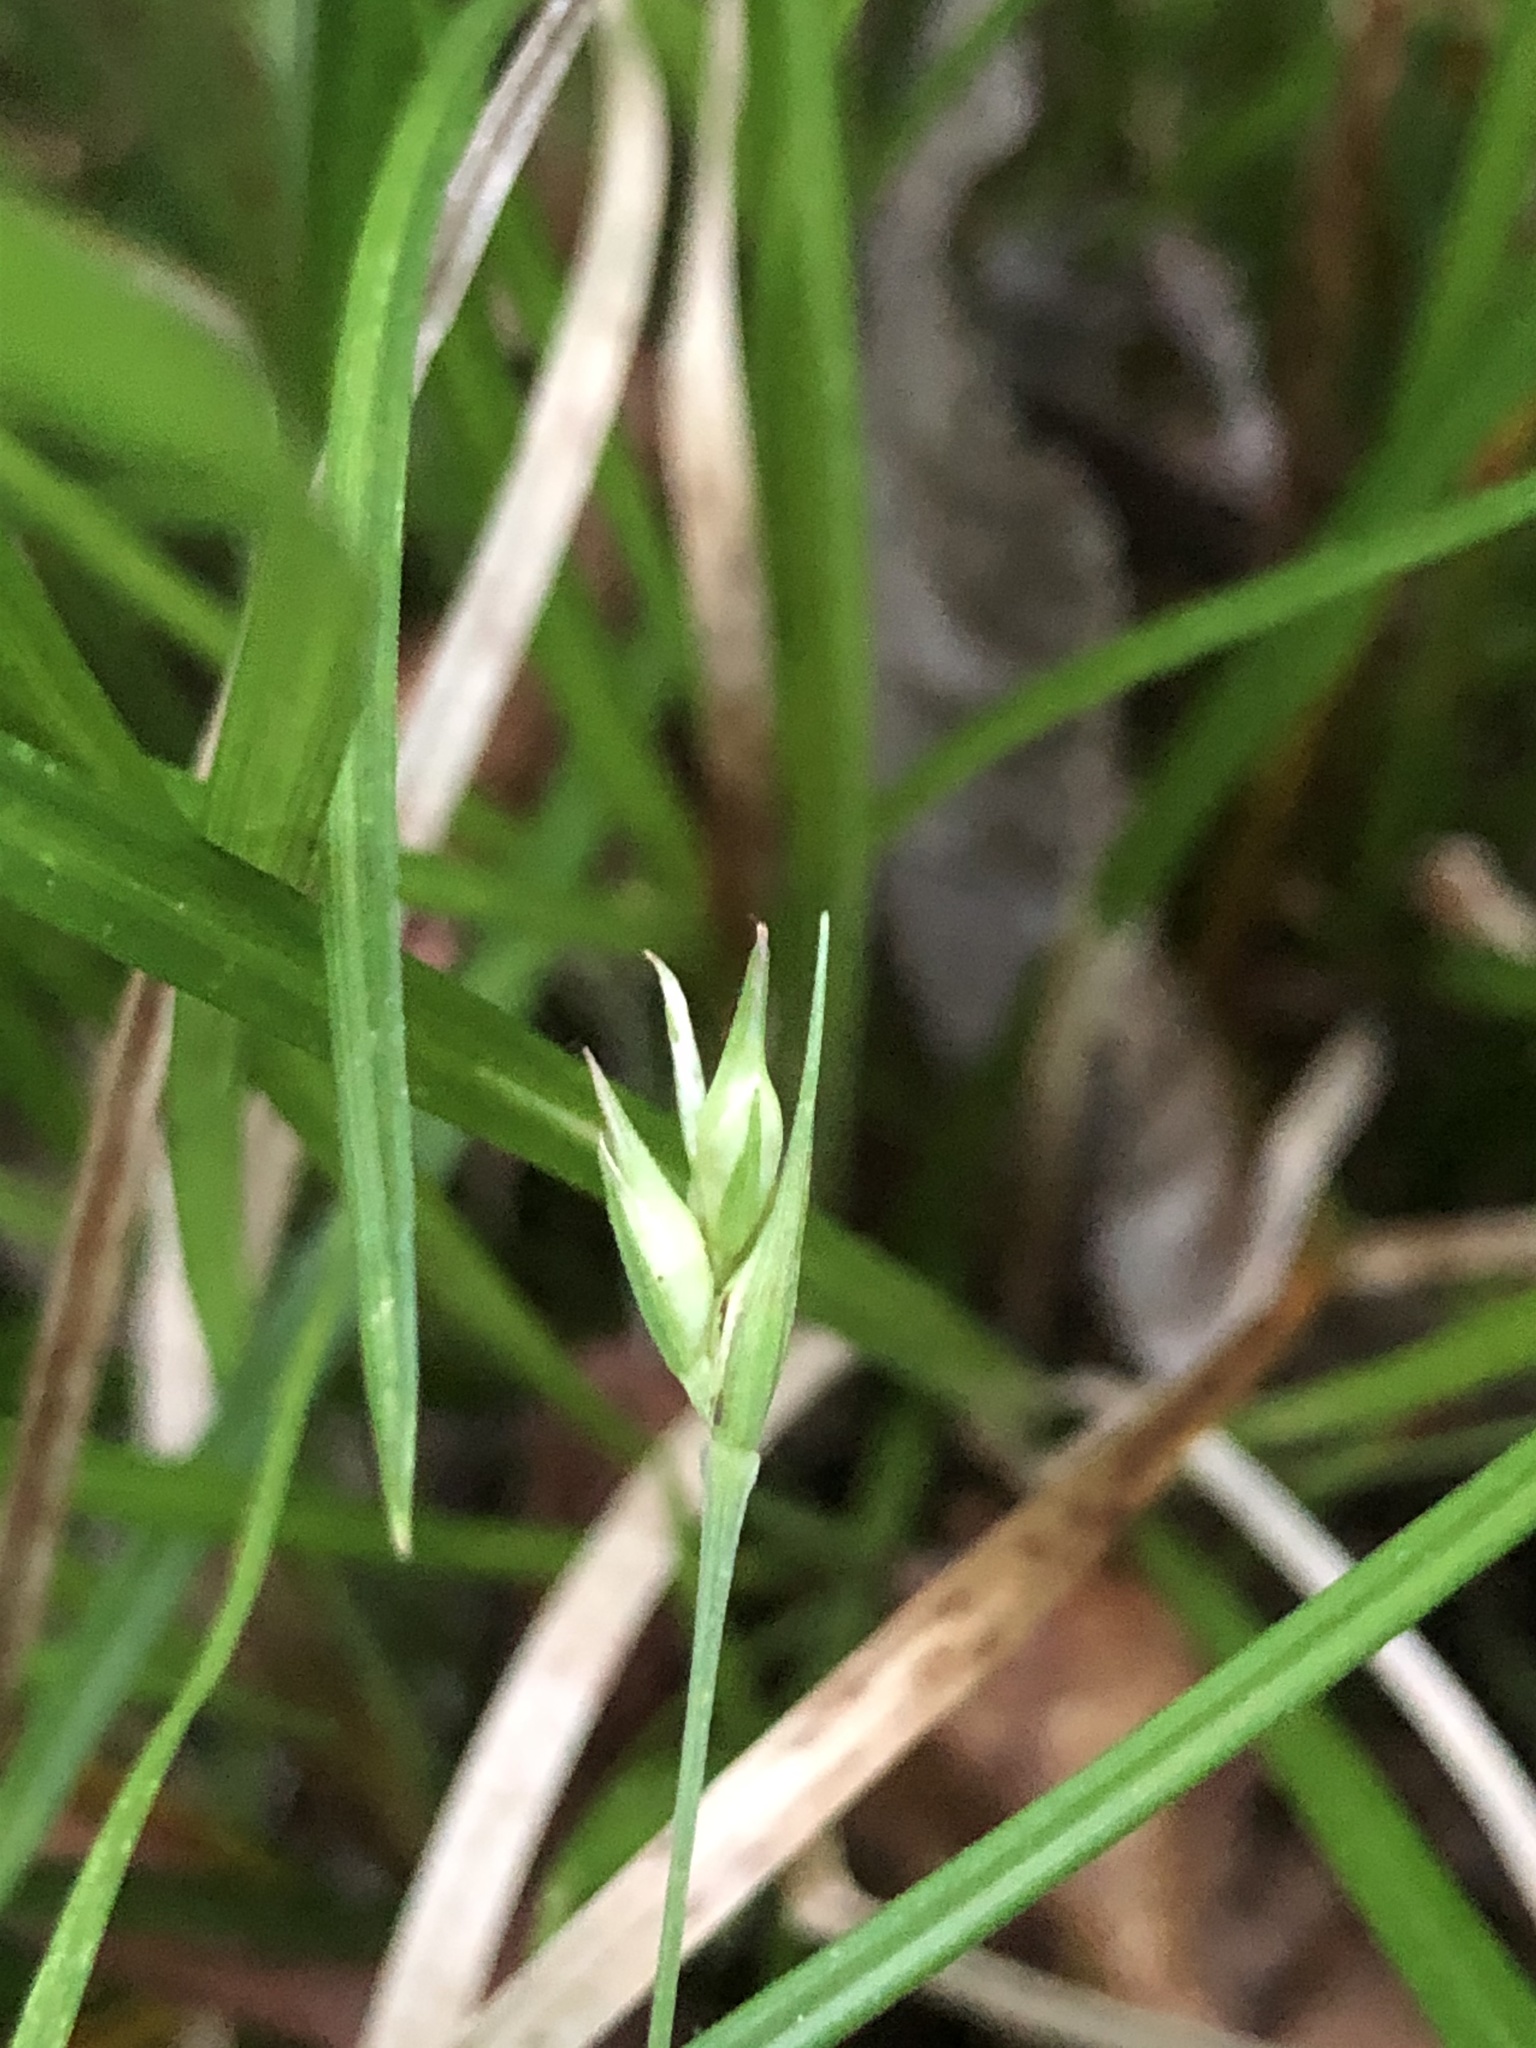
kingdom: Plantae
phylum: Tracheophyta
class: Liliopsida
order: Poales
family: Cyperaceae
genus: Carex
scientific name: Carex basiantha
